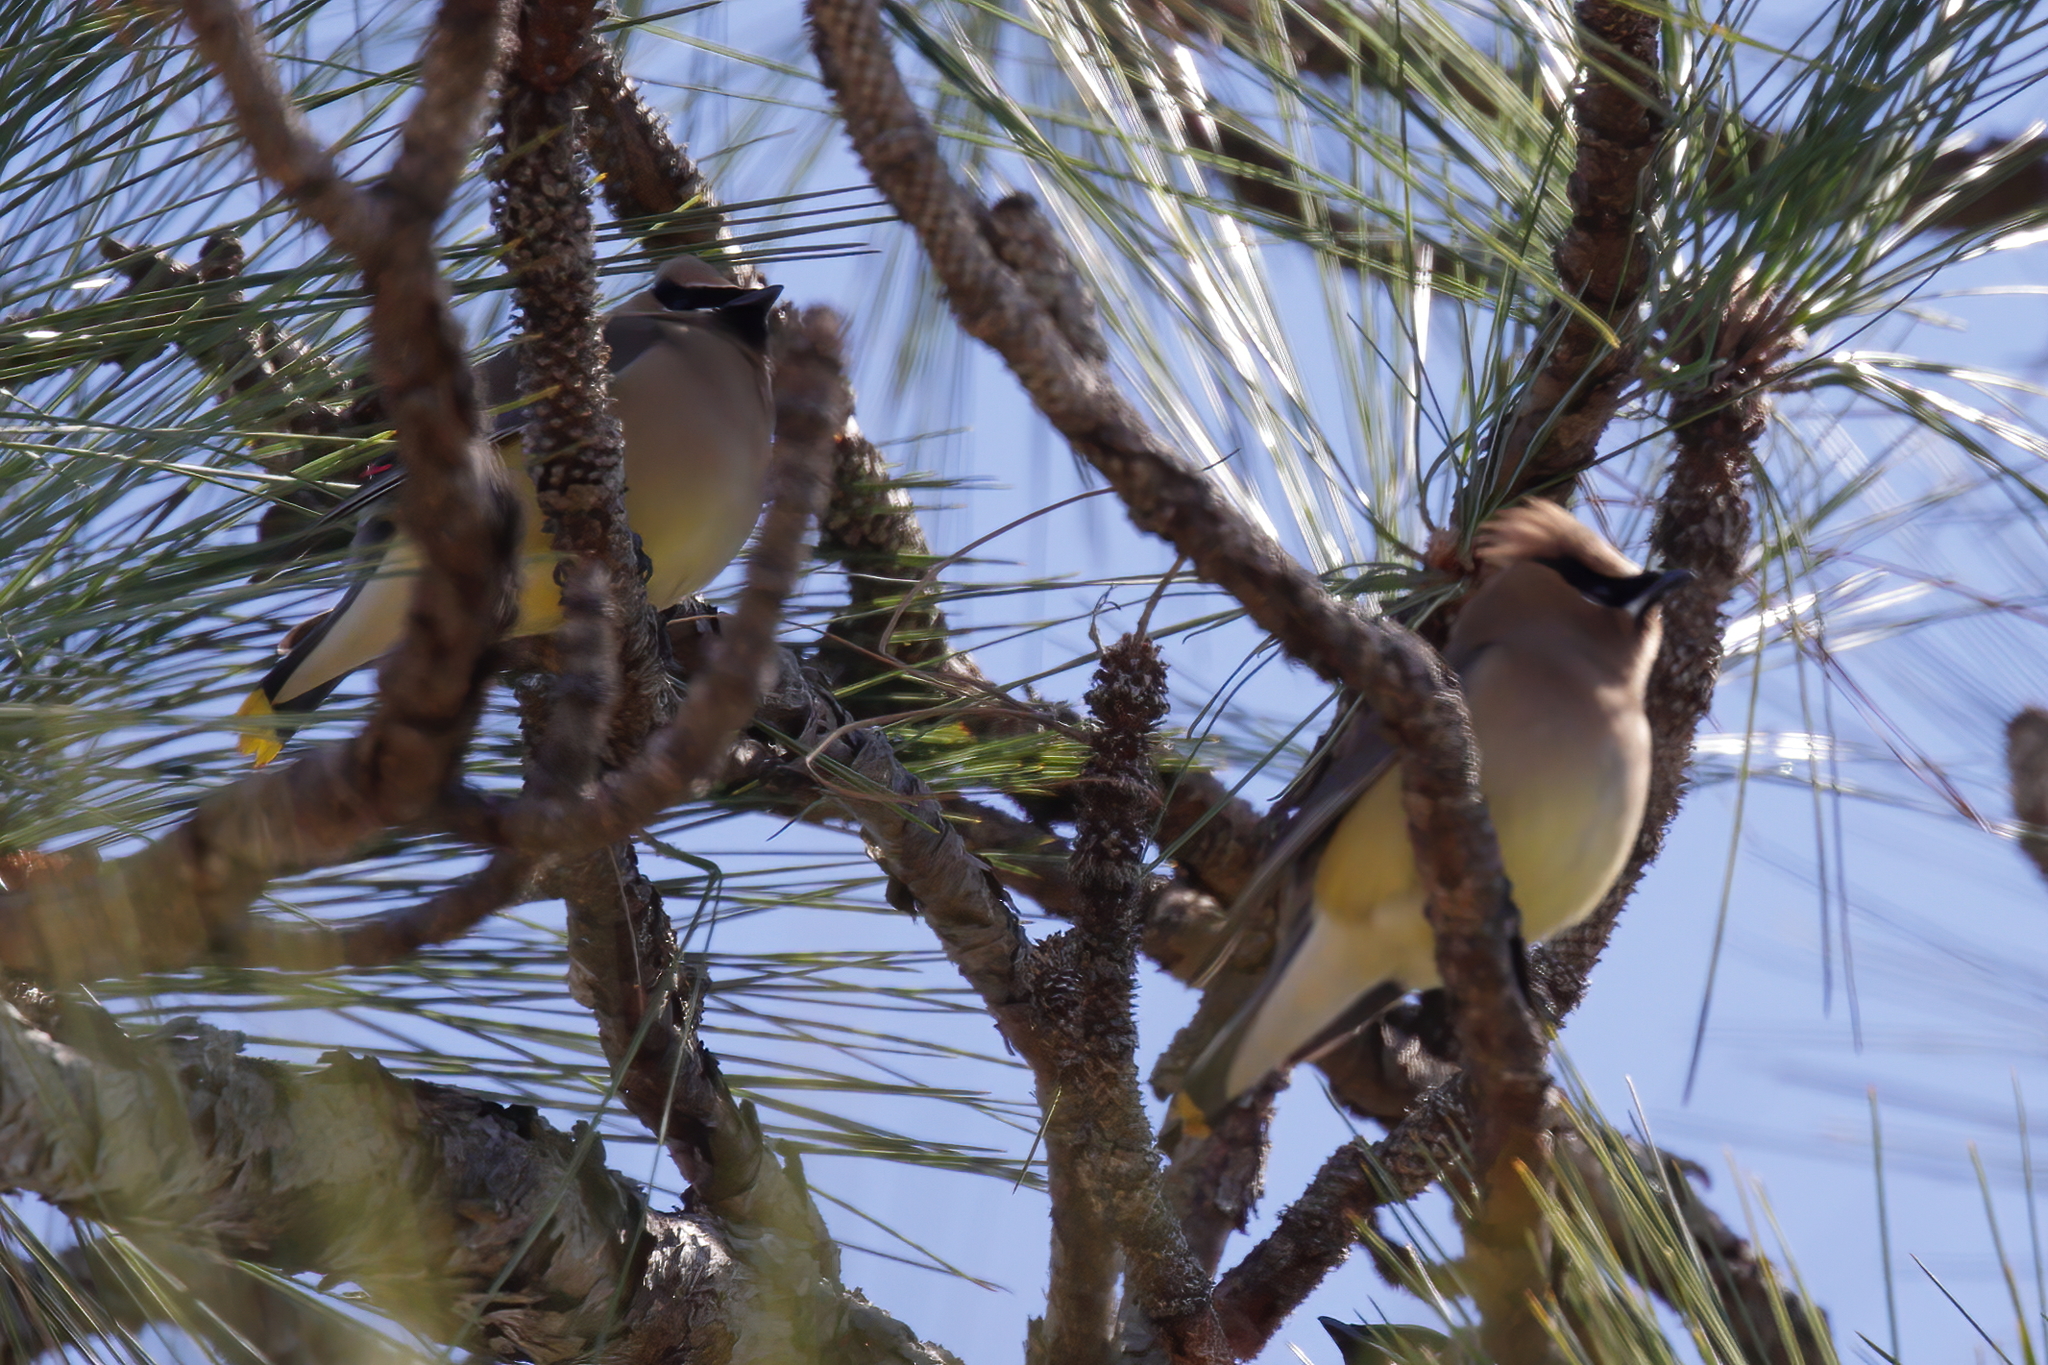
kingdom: Animalia
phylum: Chordata
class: Aves
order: Passeriformes
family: Bombycillidae
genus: Bombycilla
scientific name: Bombycilla cedrorum
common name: Cedar waxwing
